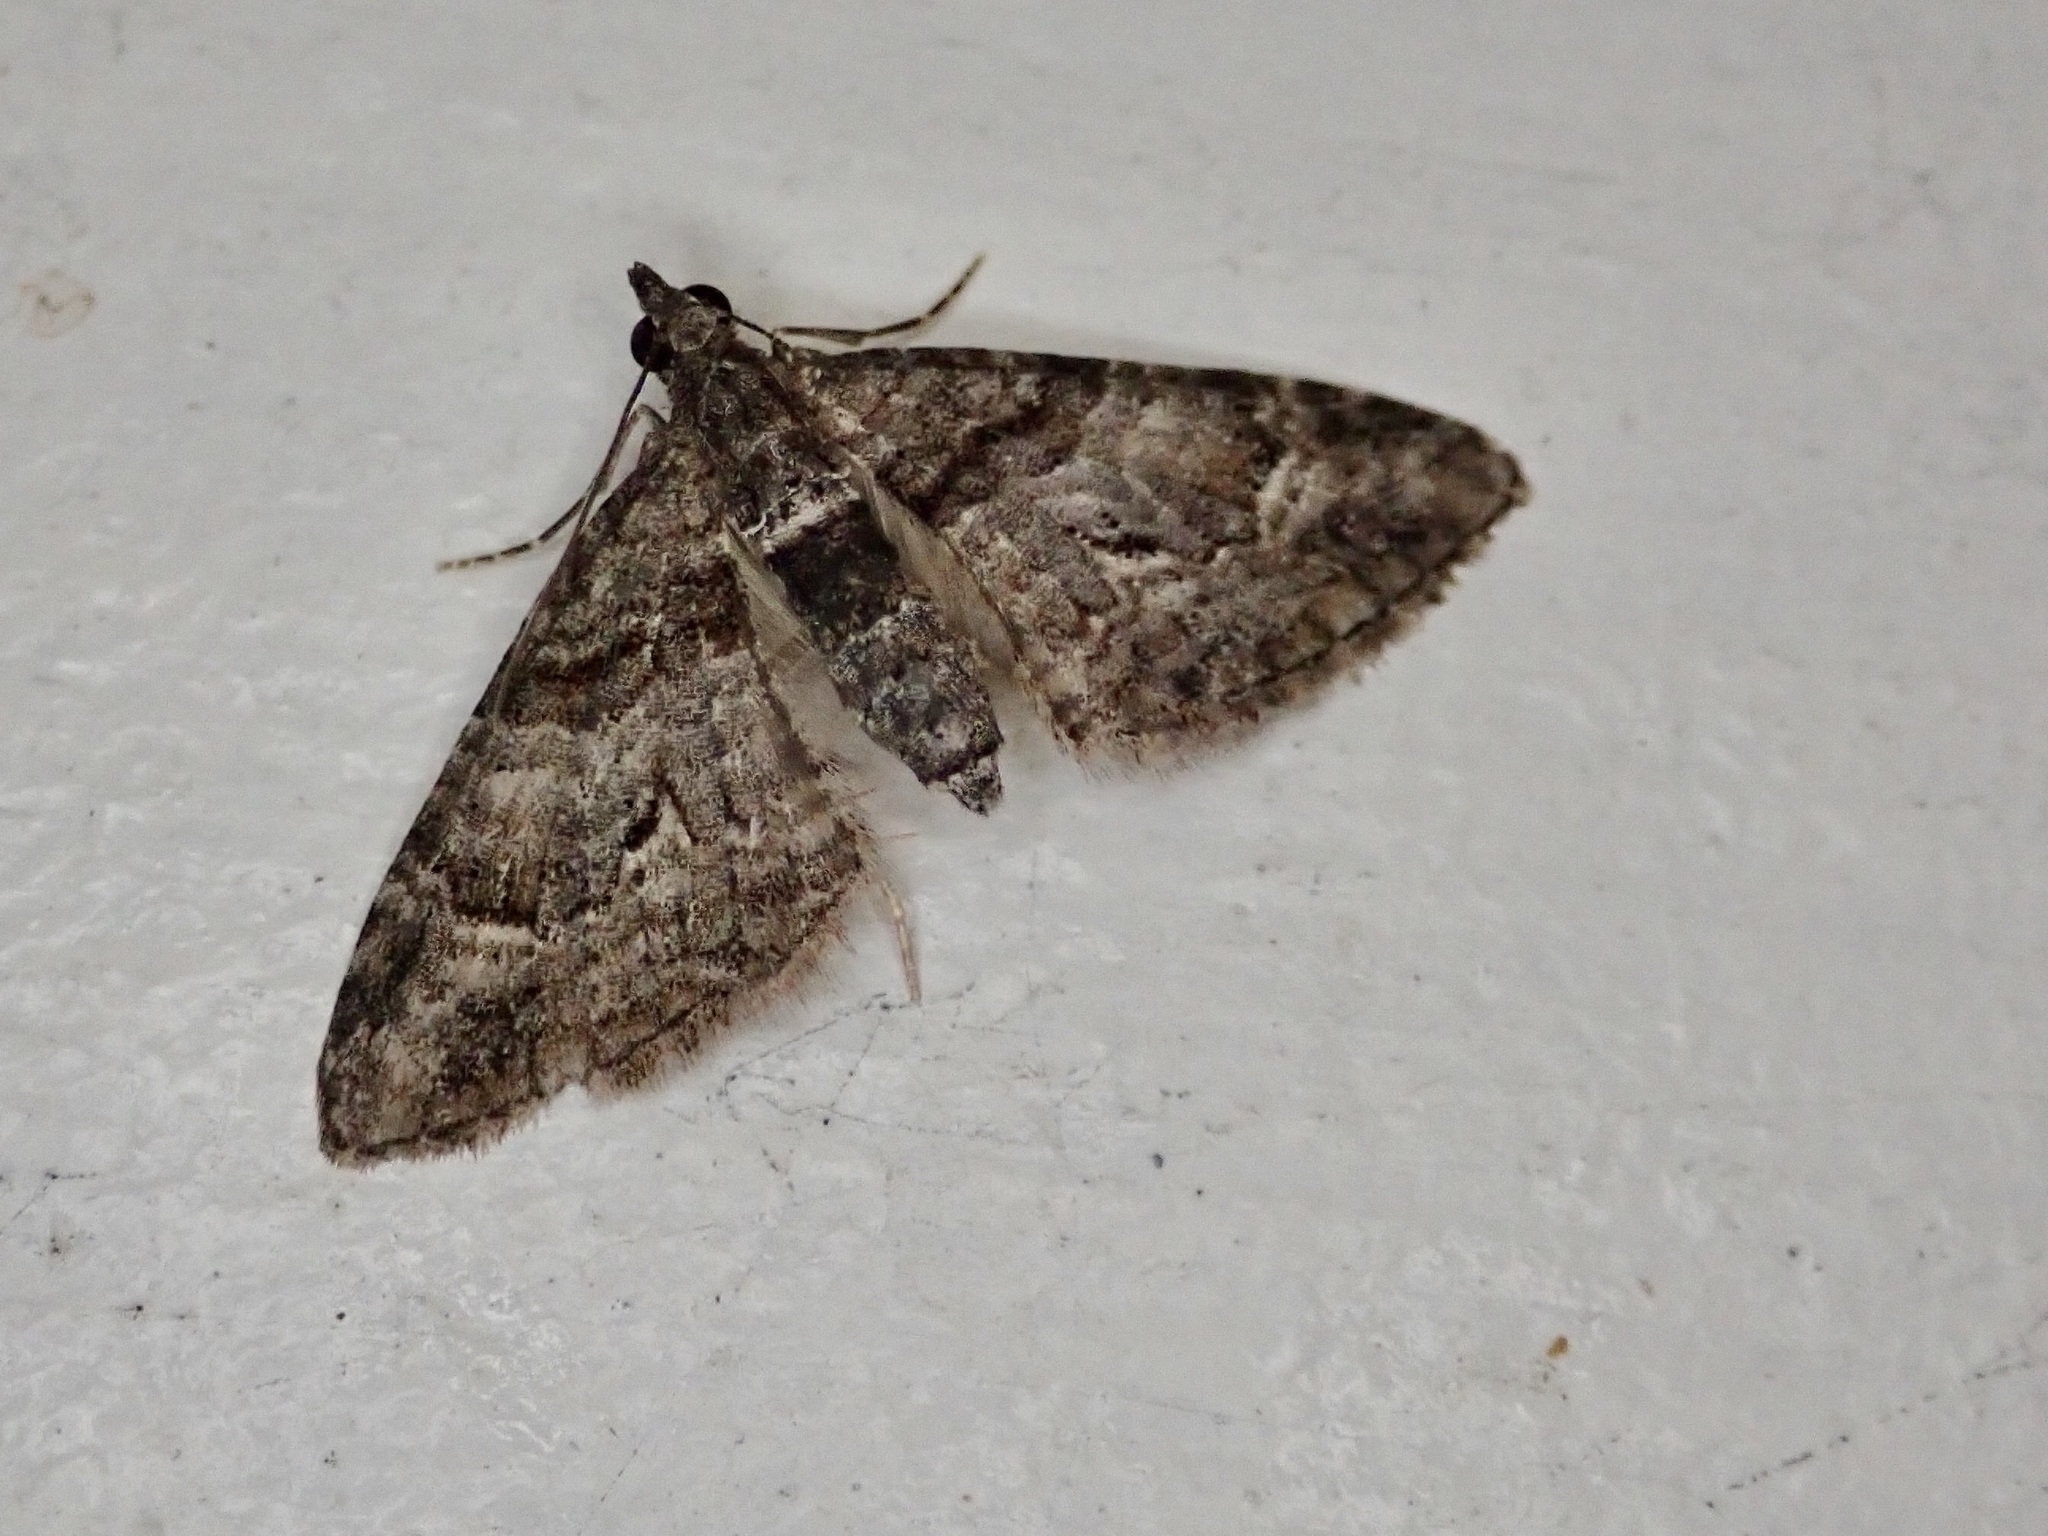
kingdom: Animalia
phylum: Arthropoda
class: Insecta
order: Lepidoptera
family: Geometridae
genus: Phrissogonus
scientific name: Phrissogonus laticostata
